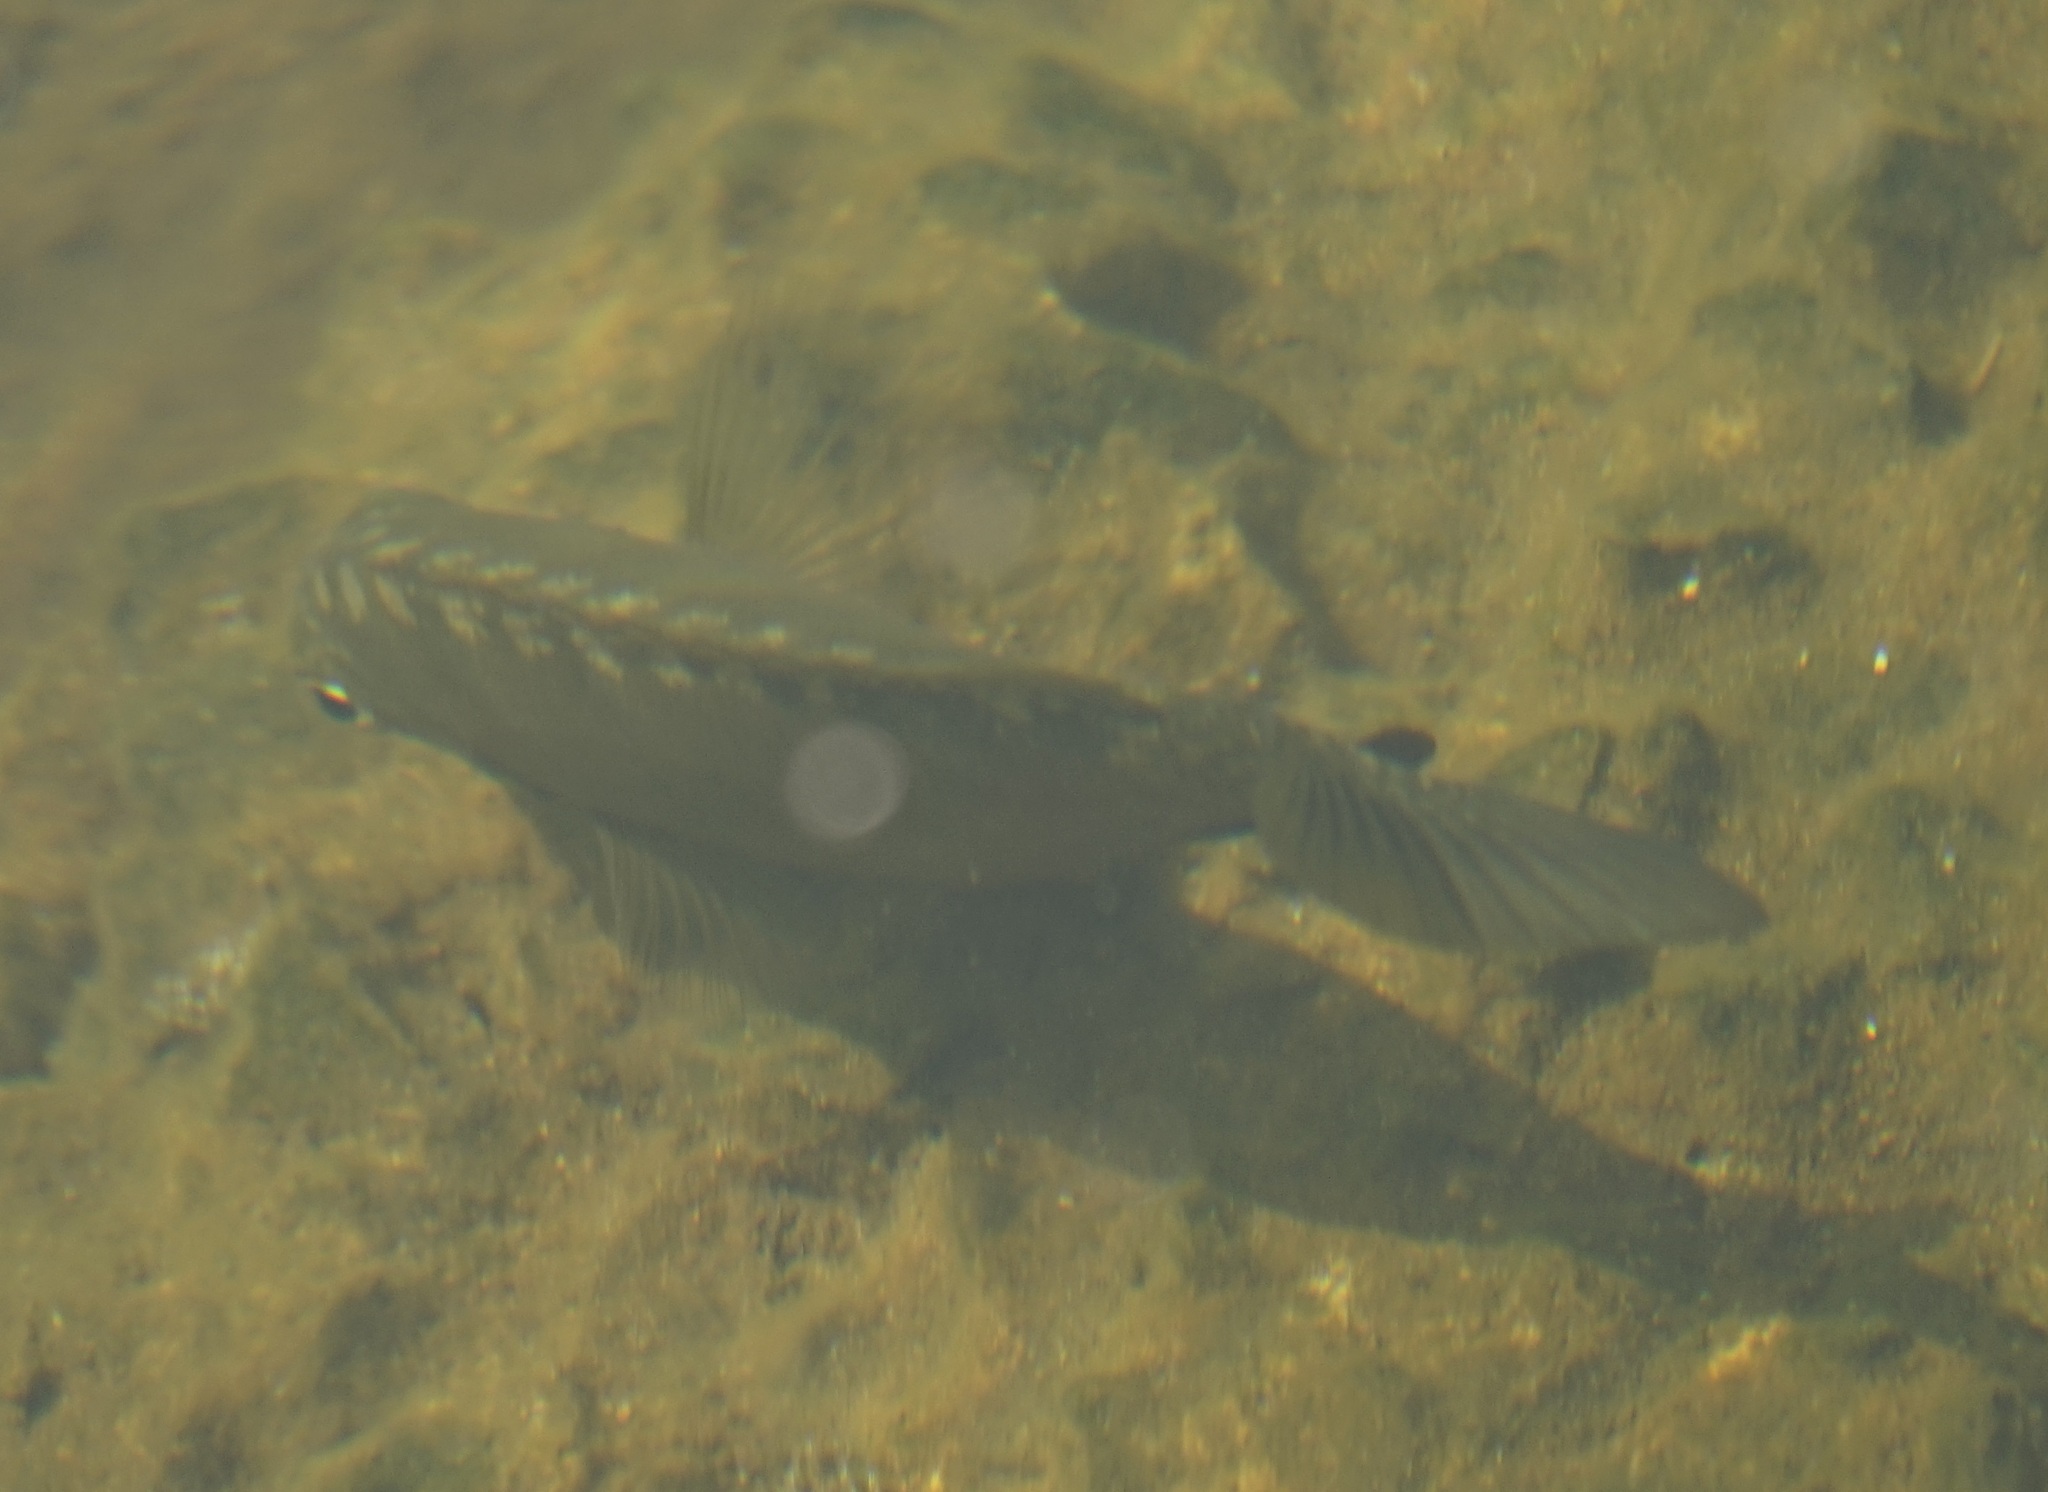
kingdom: Animalia
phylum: Chordata
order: Perciformes
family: Kyphosidae
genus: Girella
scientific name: Girella tricuspidata
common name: Parore
